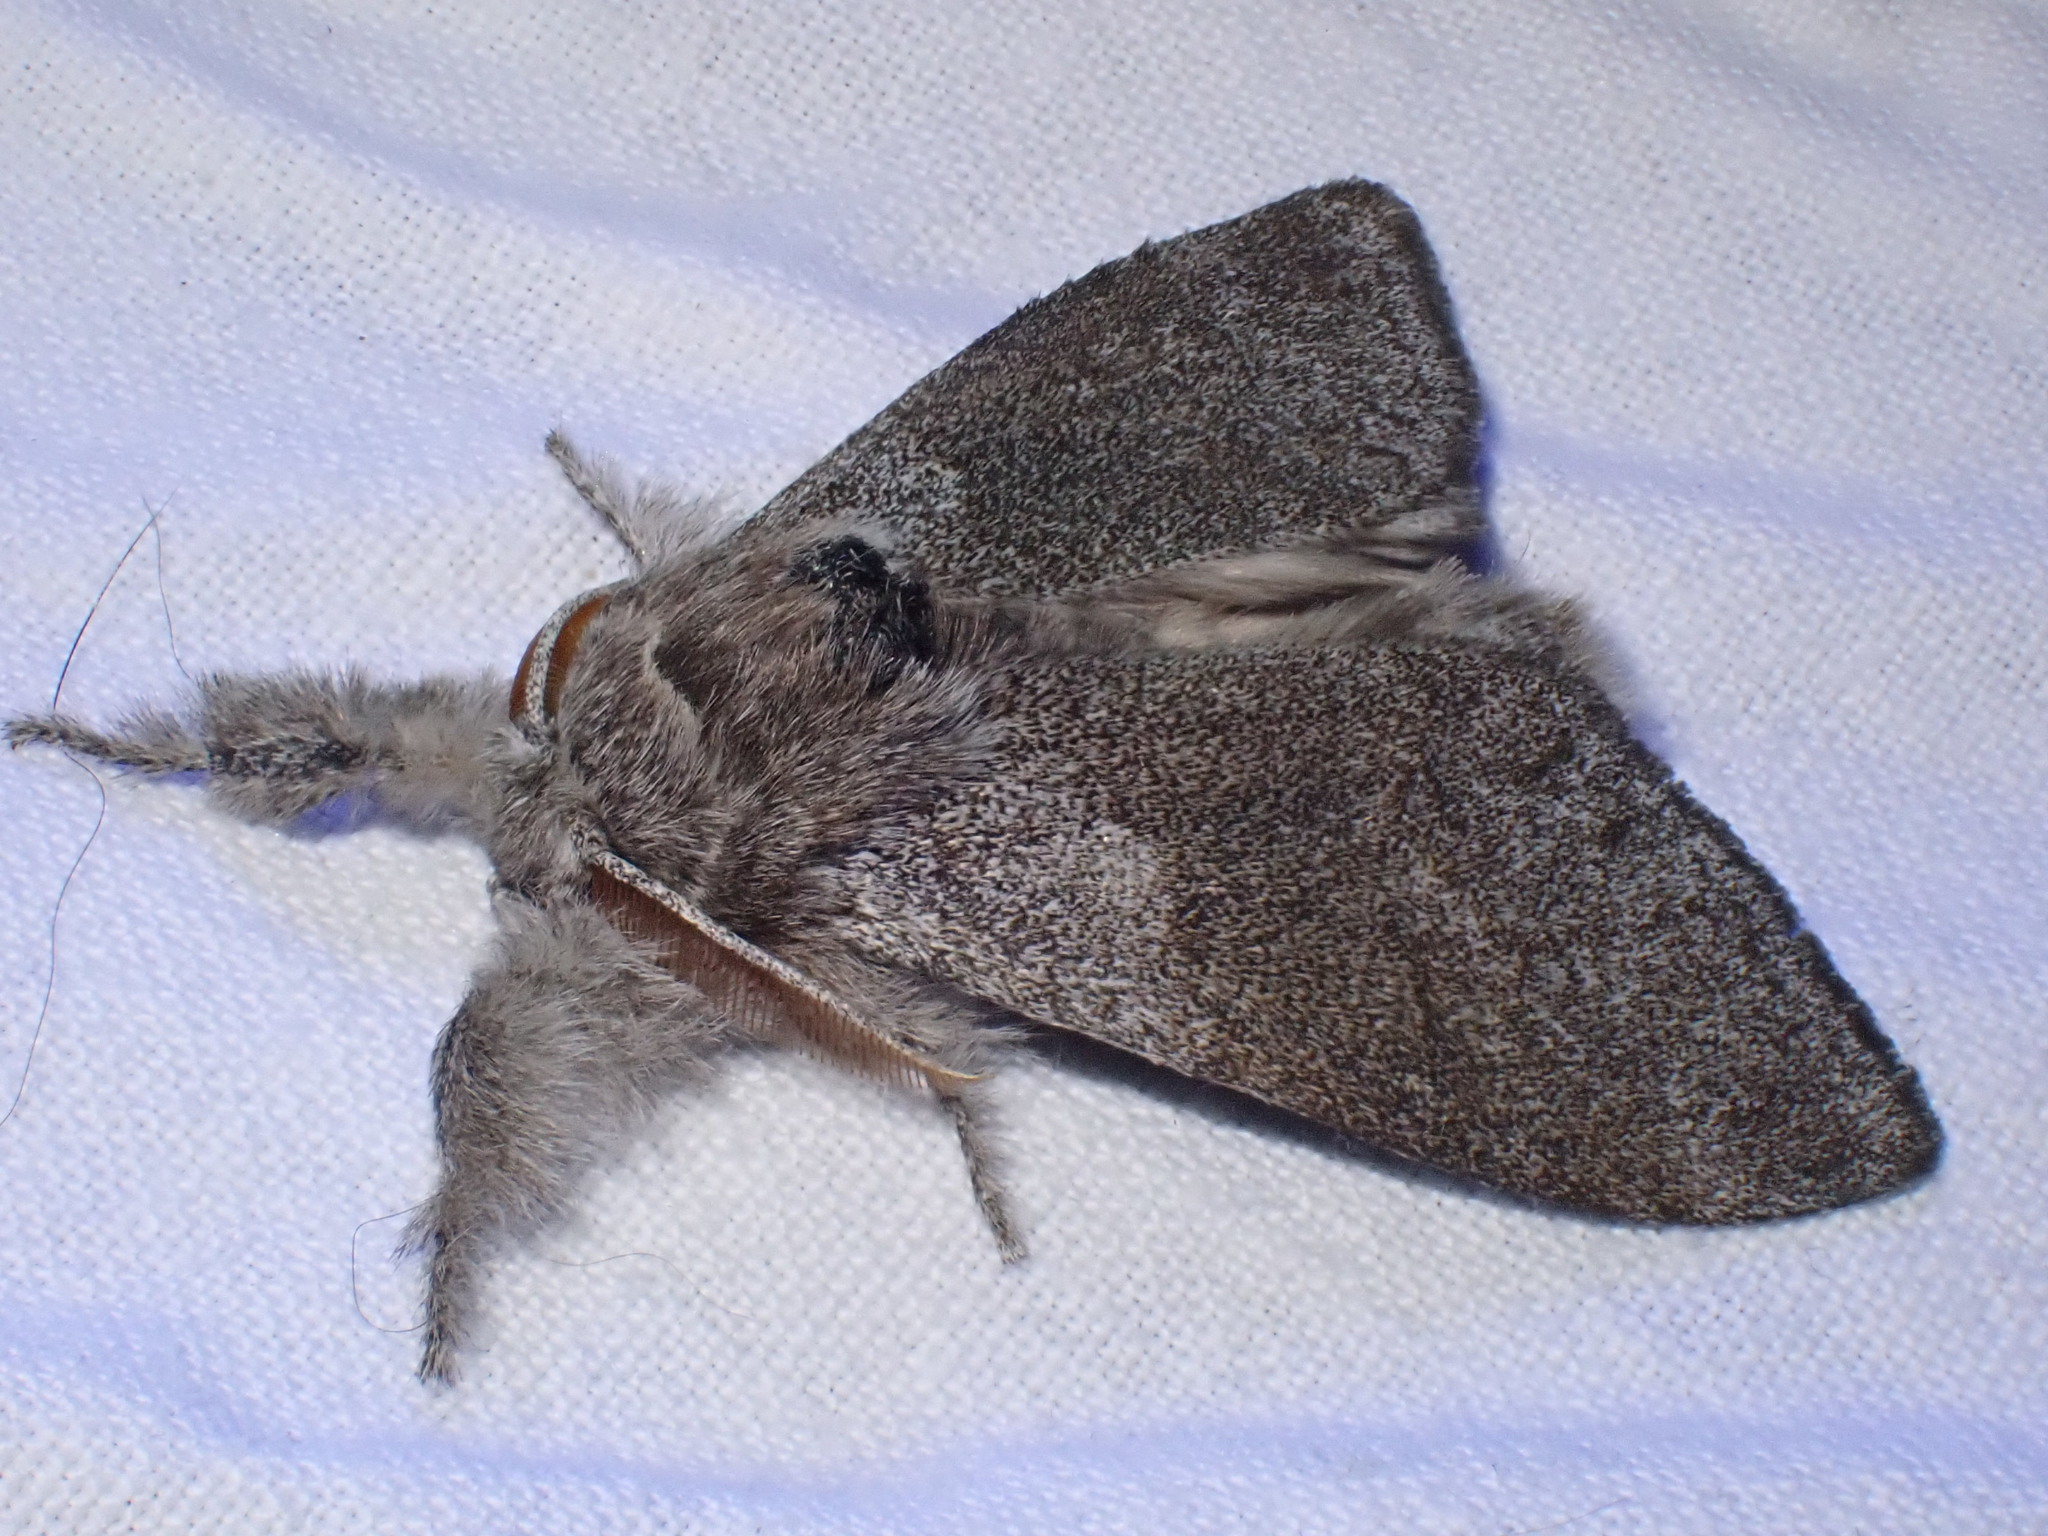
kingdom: Animalia
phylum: Arthropoda
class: Insecta
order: Lepidoptera
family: Erebidae
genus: Calliteara
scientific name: Calliteara pudibunda
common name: Pale tussock
